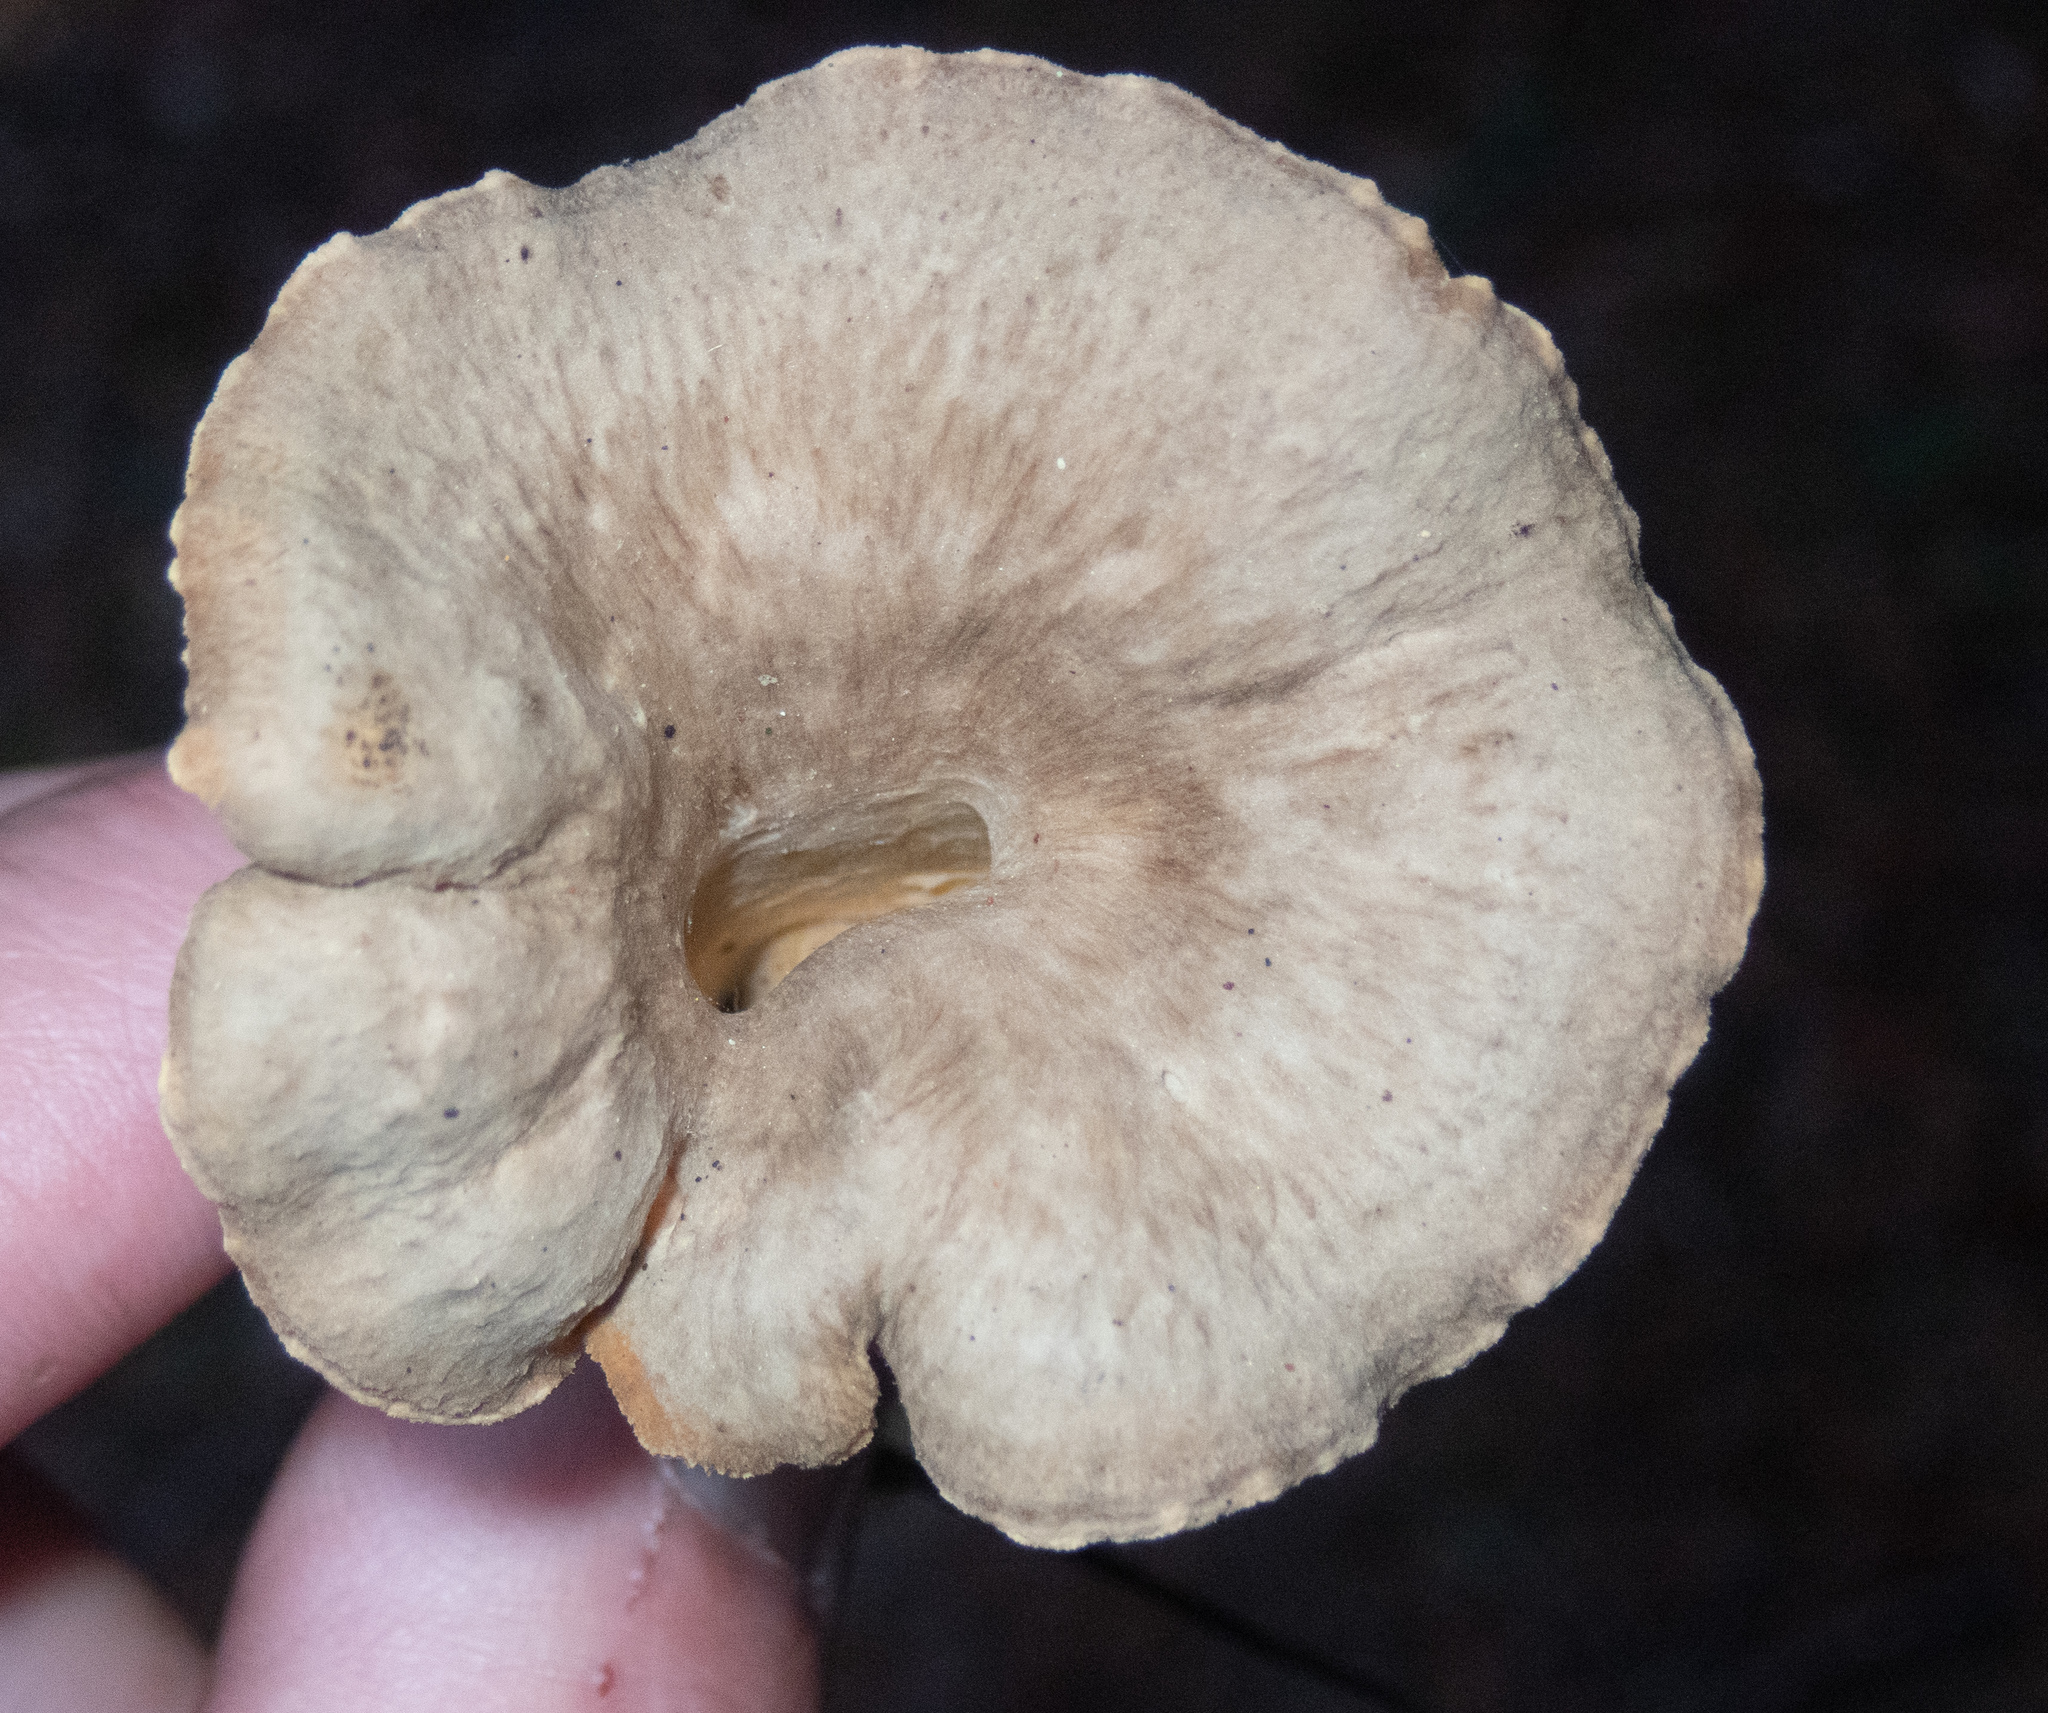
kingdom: Fungi
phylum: Basidiomycota
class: Agaricomycetes
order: Cantharellales
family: Hydnaceae
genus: Craterellus
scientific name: Craterellus tubaeformis
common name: Yellowfoot
